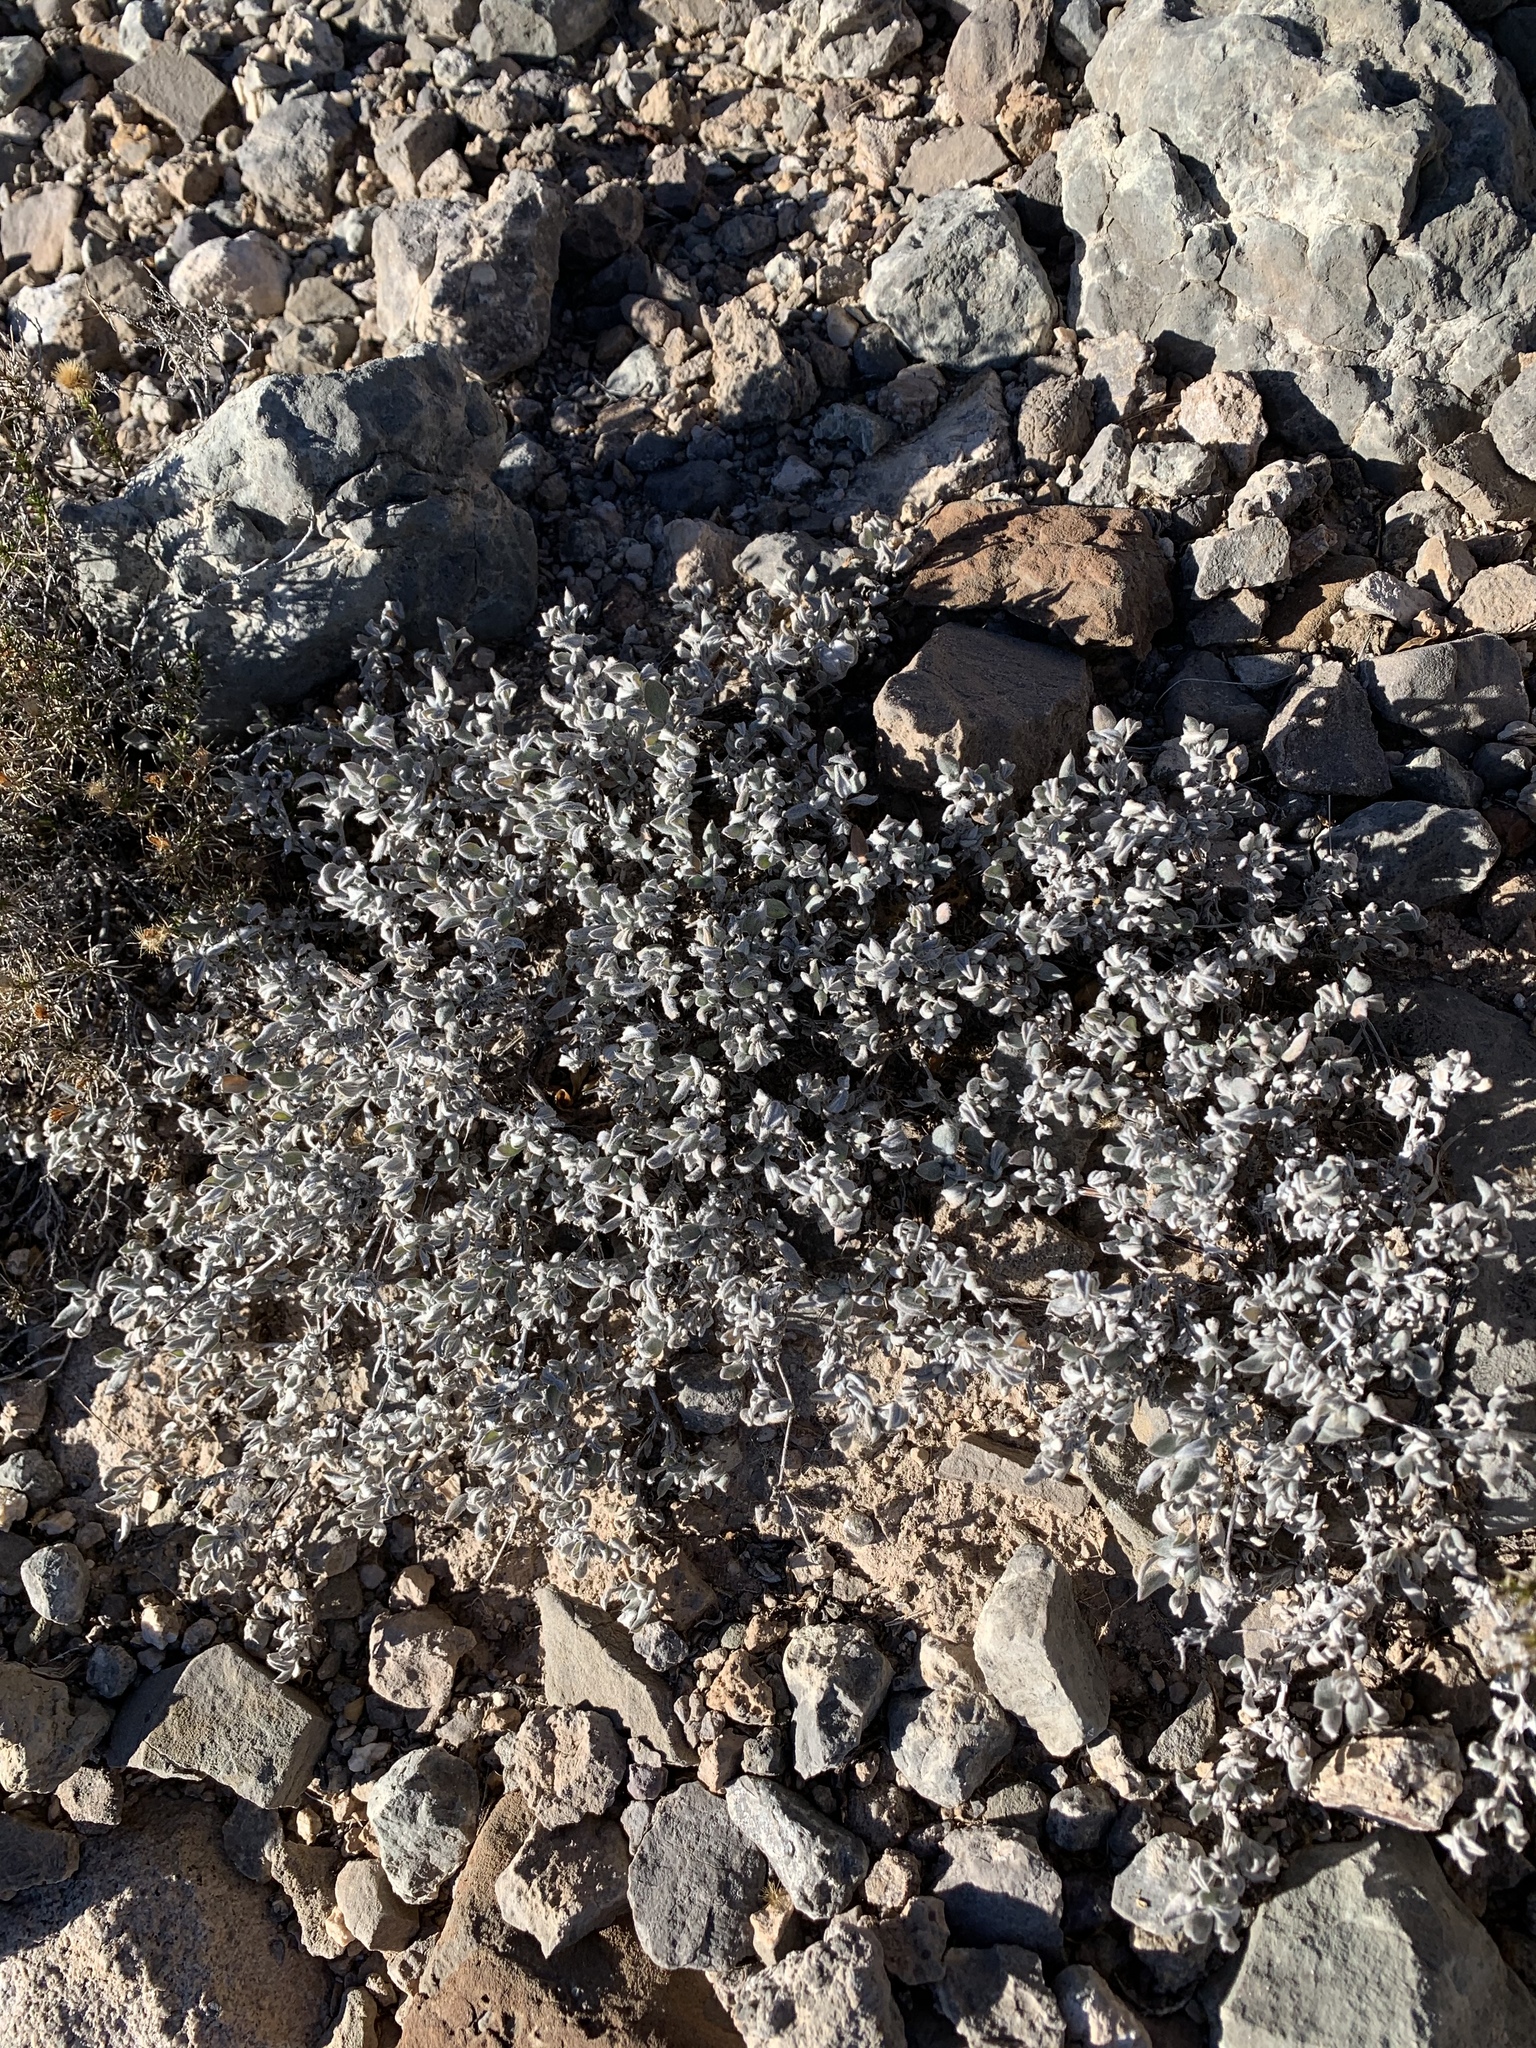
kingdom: Plantae
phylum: Tracheophyta
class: Magnoliopsida
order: Boraginales
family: Ehretiaceae
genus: Tiquilia
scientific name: Tiquilia canescens
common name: Hairy tiquilia
